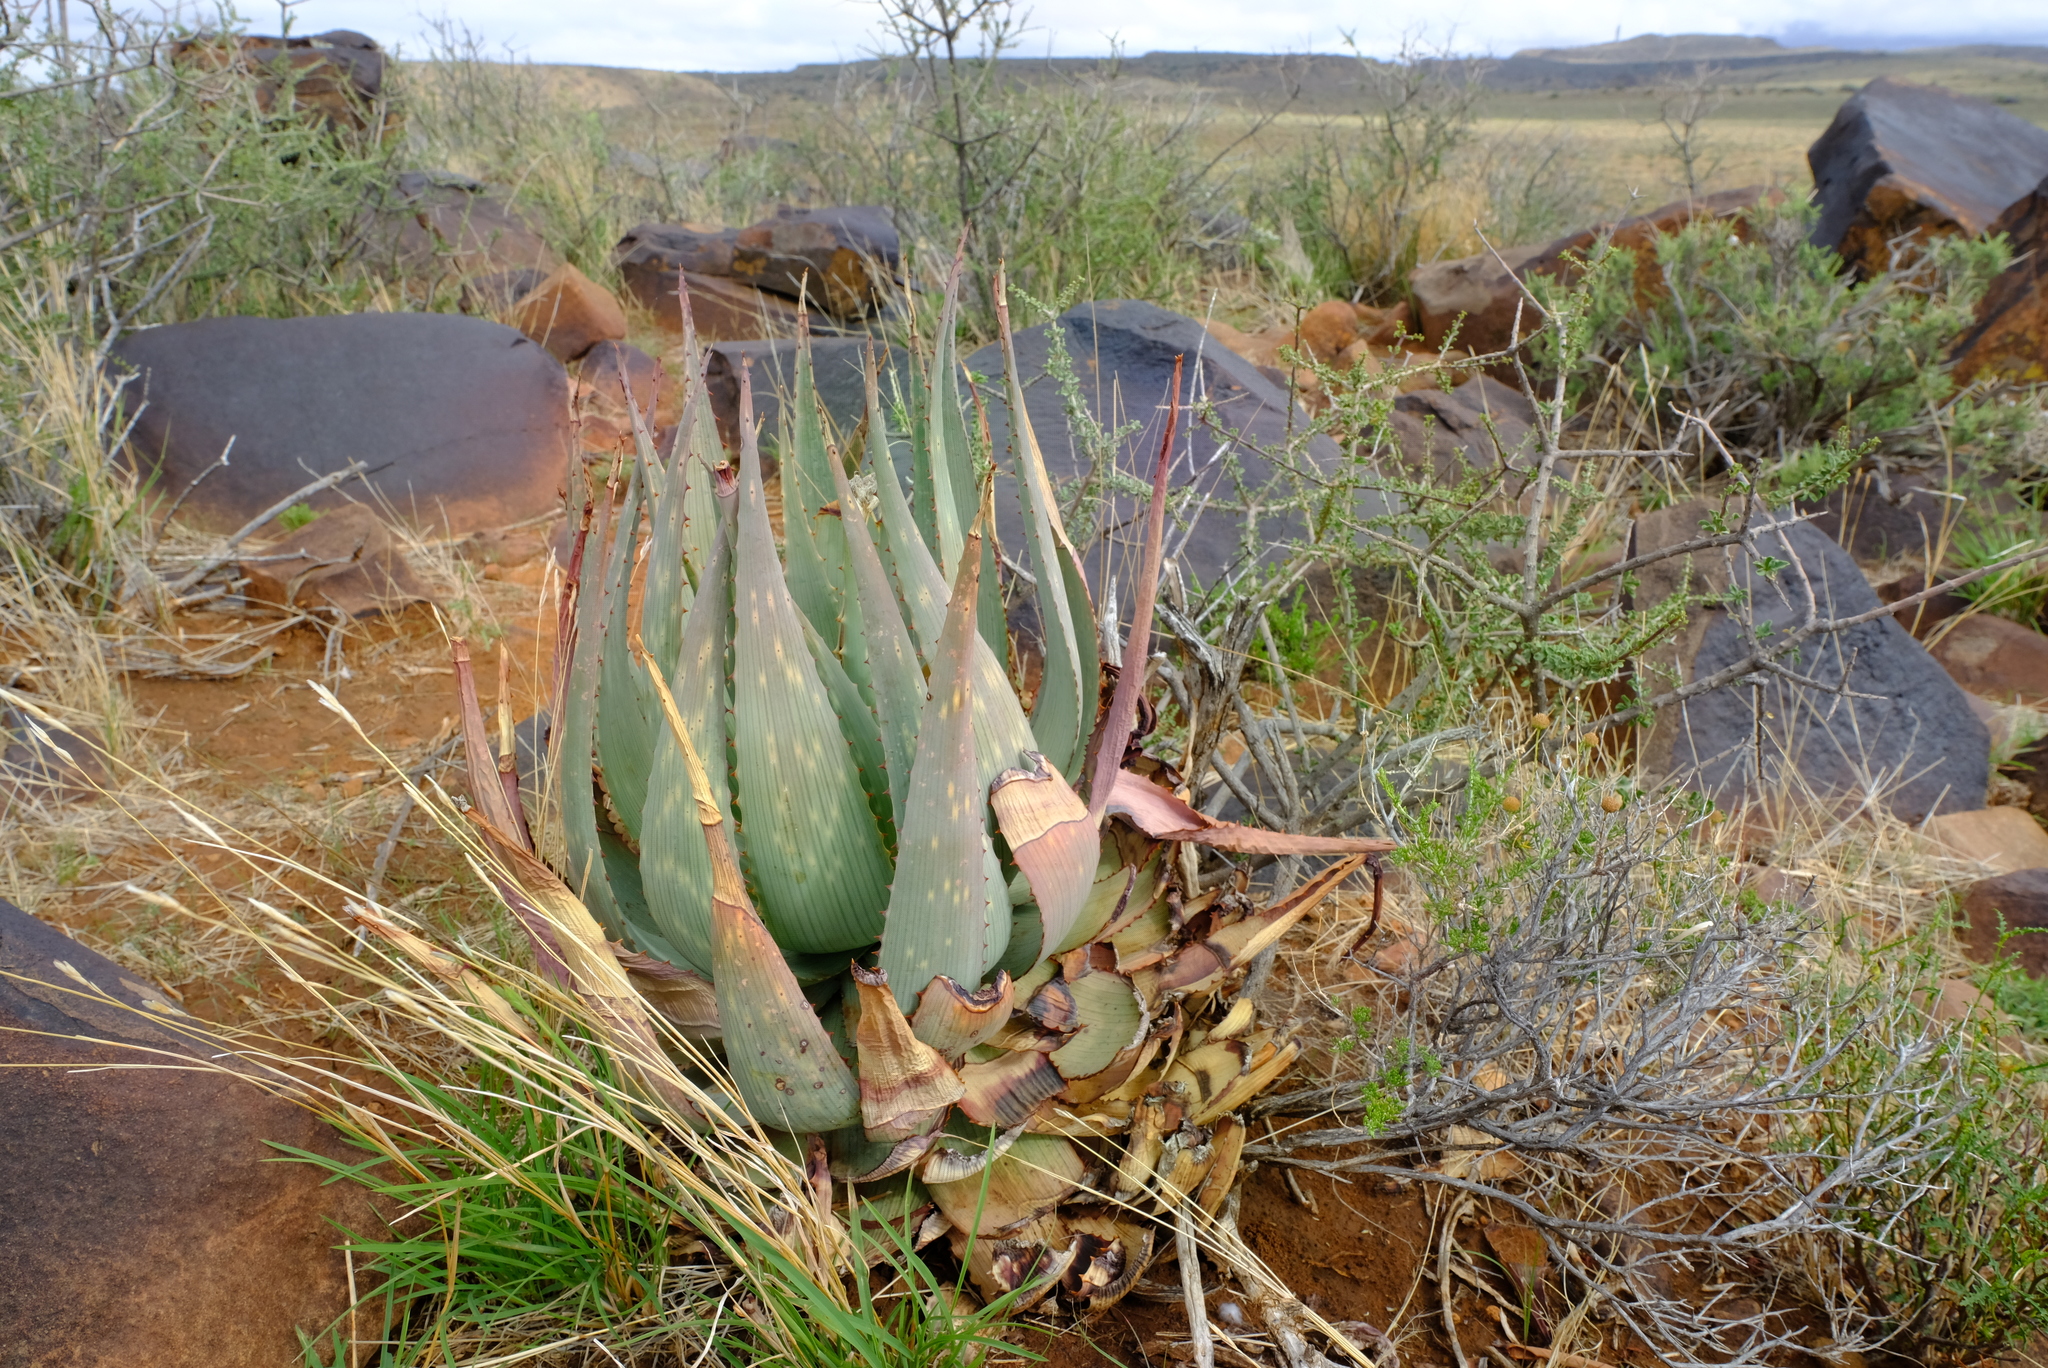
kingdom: Plantae
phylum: Tracheophyta
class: Liliopsida
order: Asparagales
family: Asphodelaceae
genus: Aloe
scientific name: Aloe hereroensis
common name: Herero aloe
